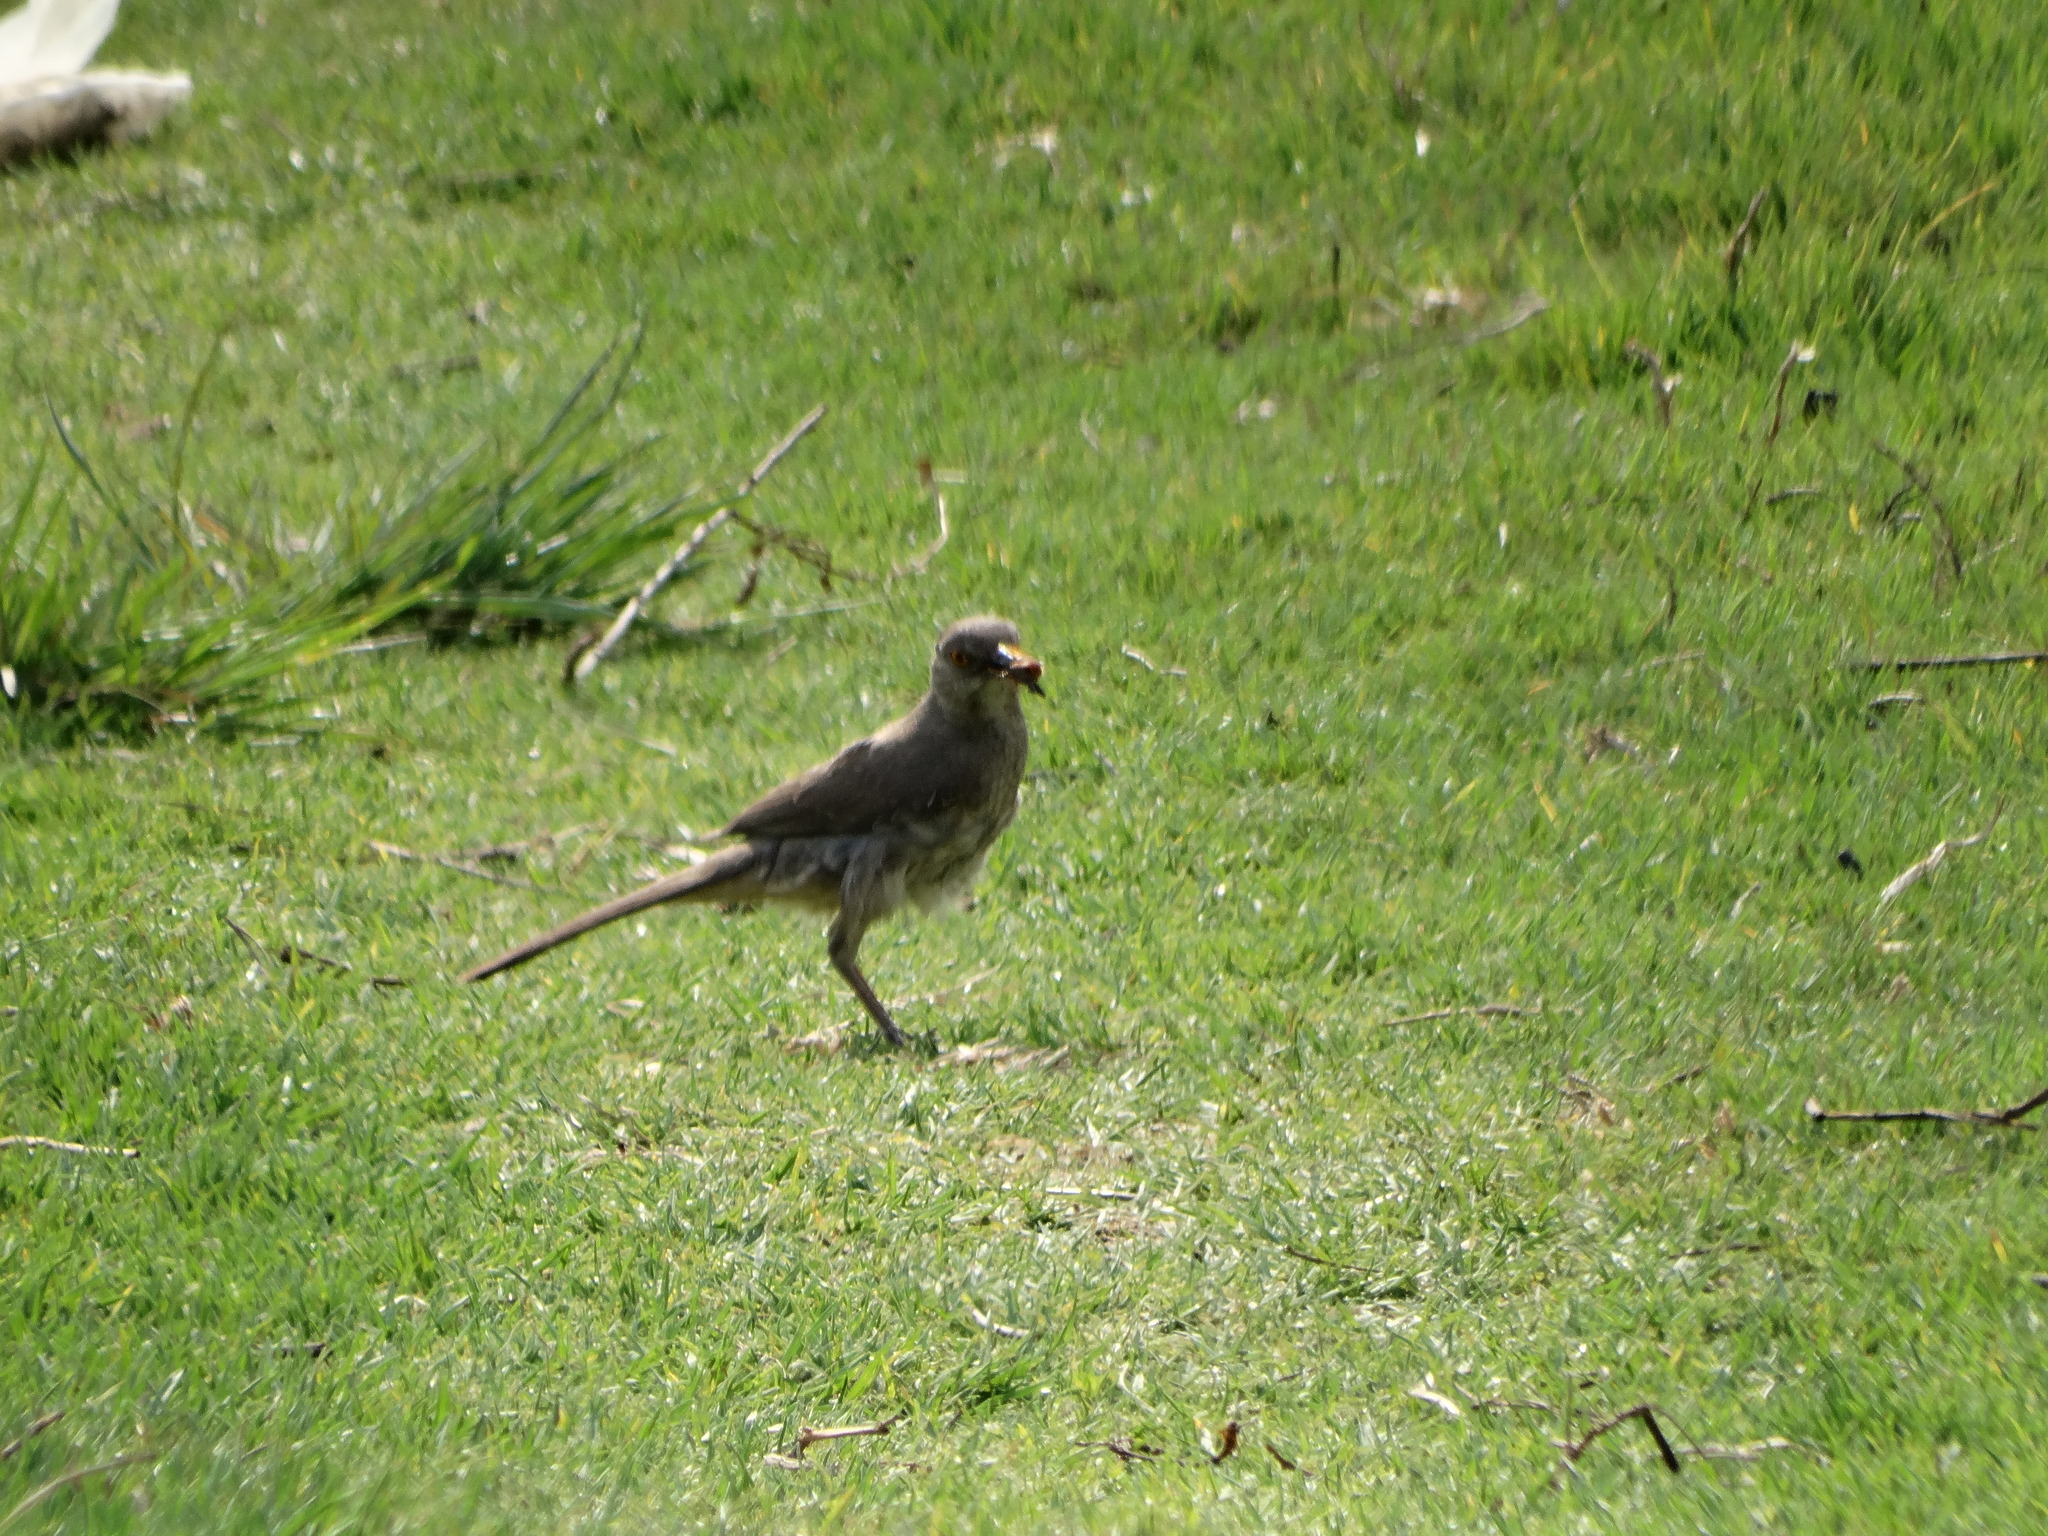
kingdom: Animalia
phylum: Chordata
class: Aves
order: Passeriformes
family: Mimidae
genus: Toxostoma
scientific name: Toxostoma curvirostre
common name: Curve-billed thrasher
